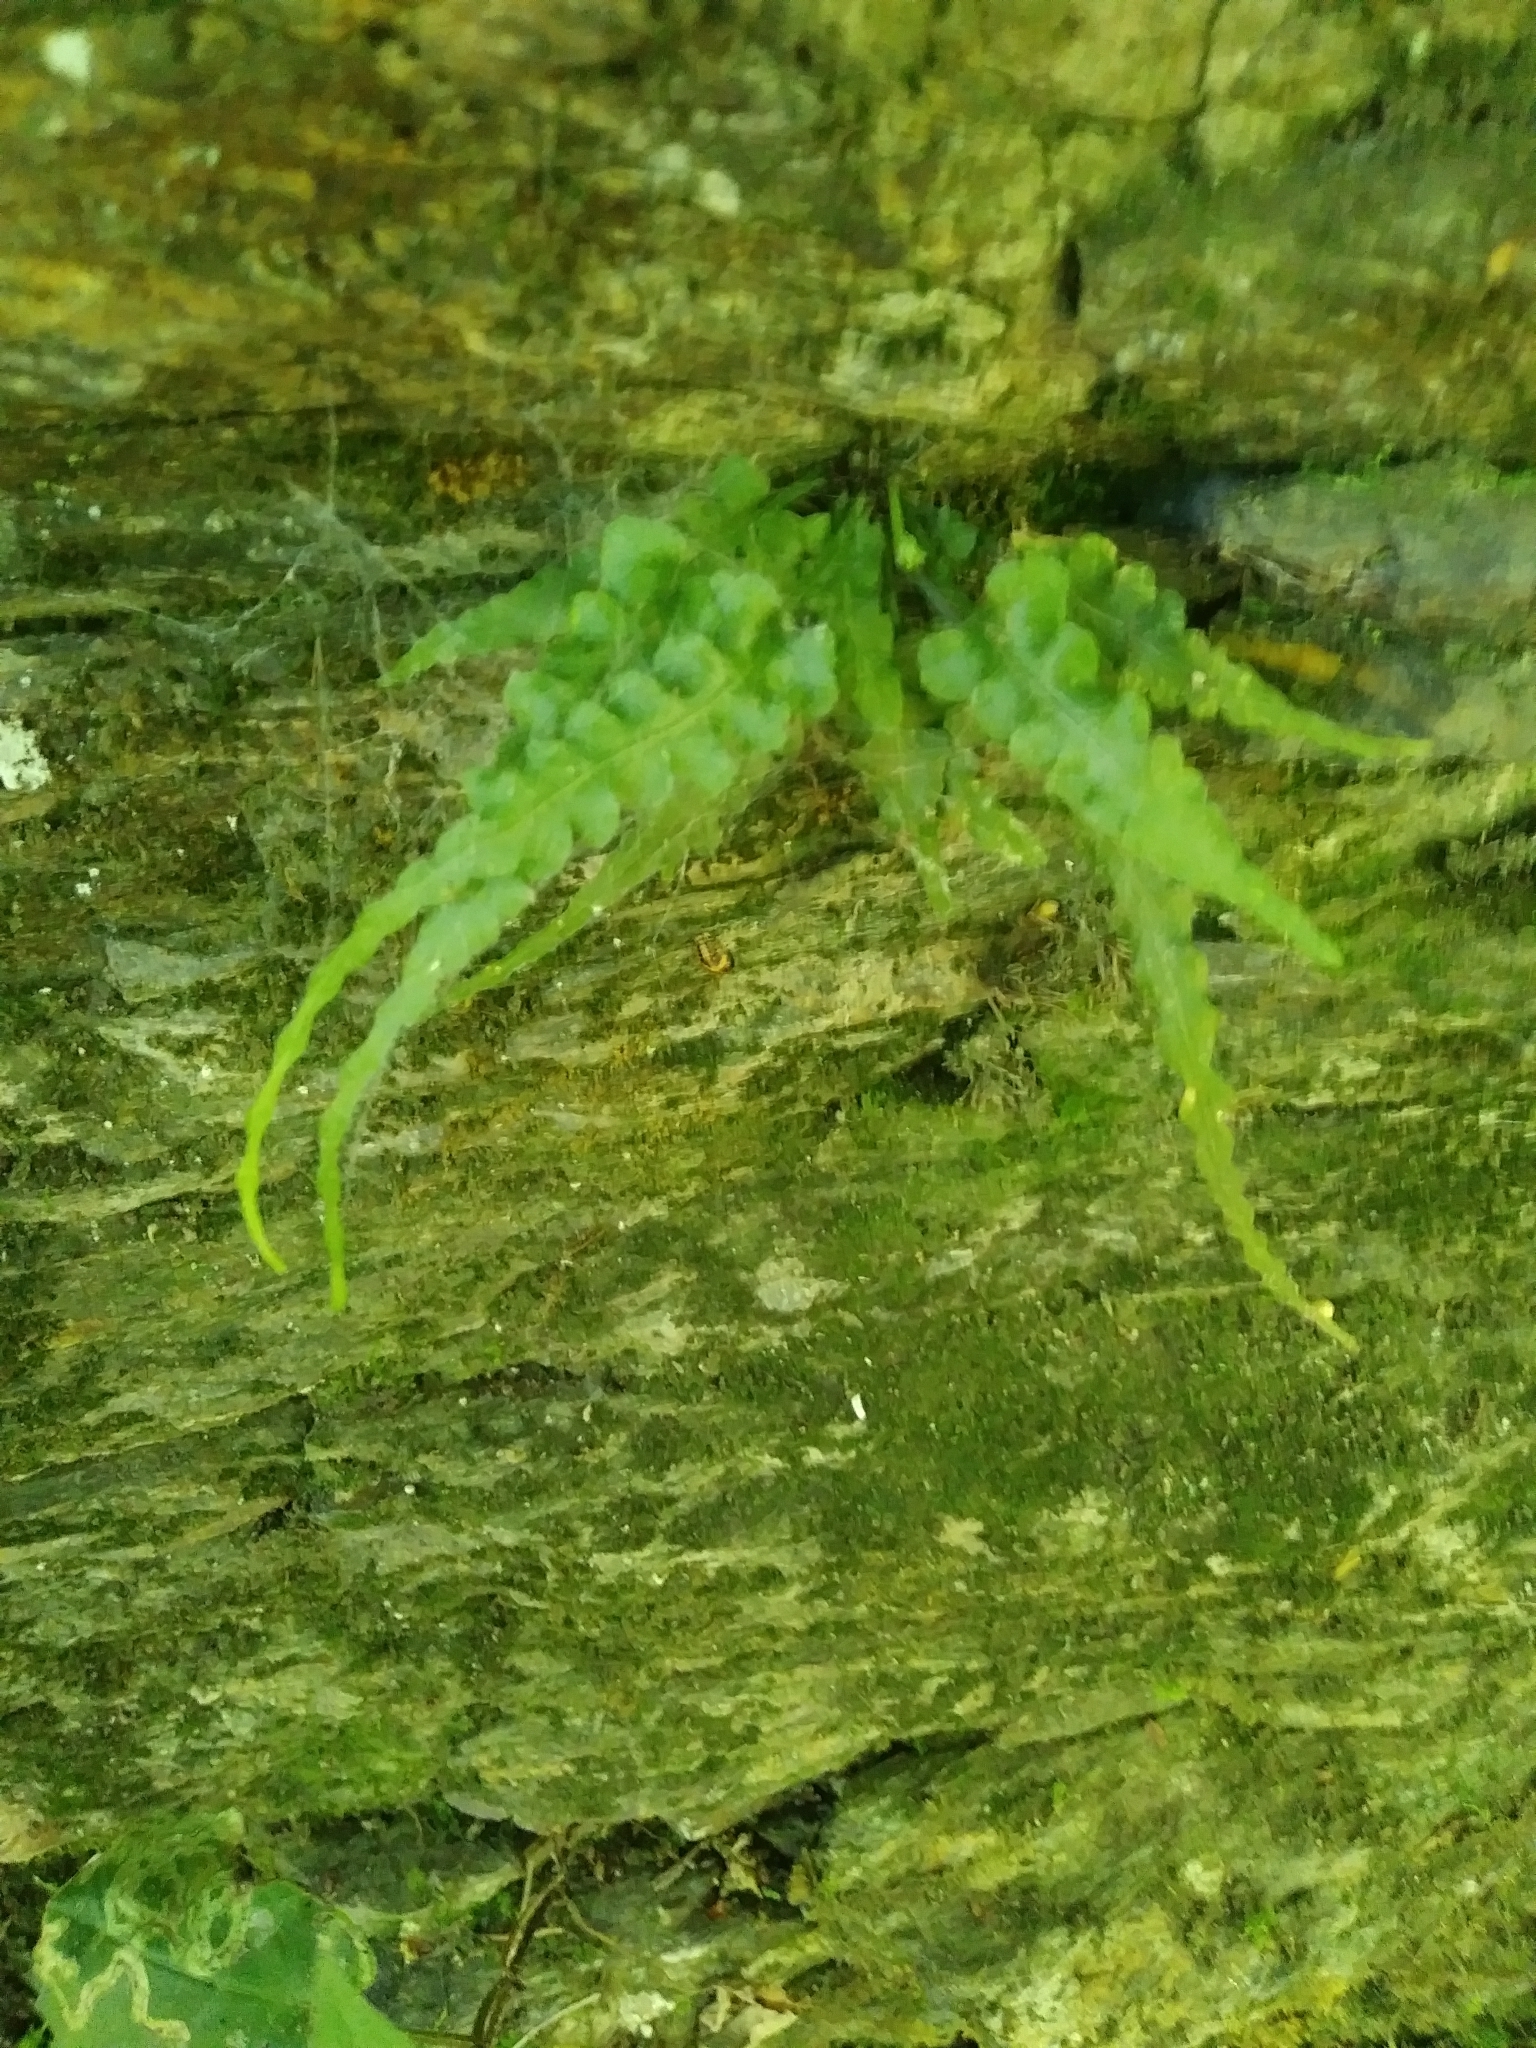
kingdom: Plantae
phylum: Tracheophyta
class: Polypodiopsida
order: Polypodiales
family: Aspleniaceae
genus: Asplenium
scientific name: Asplenium pinnatifidum
